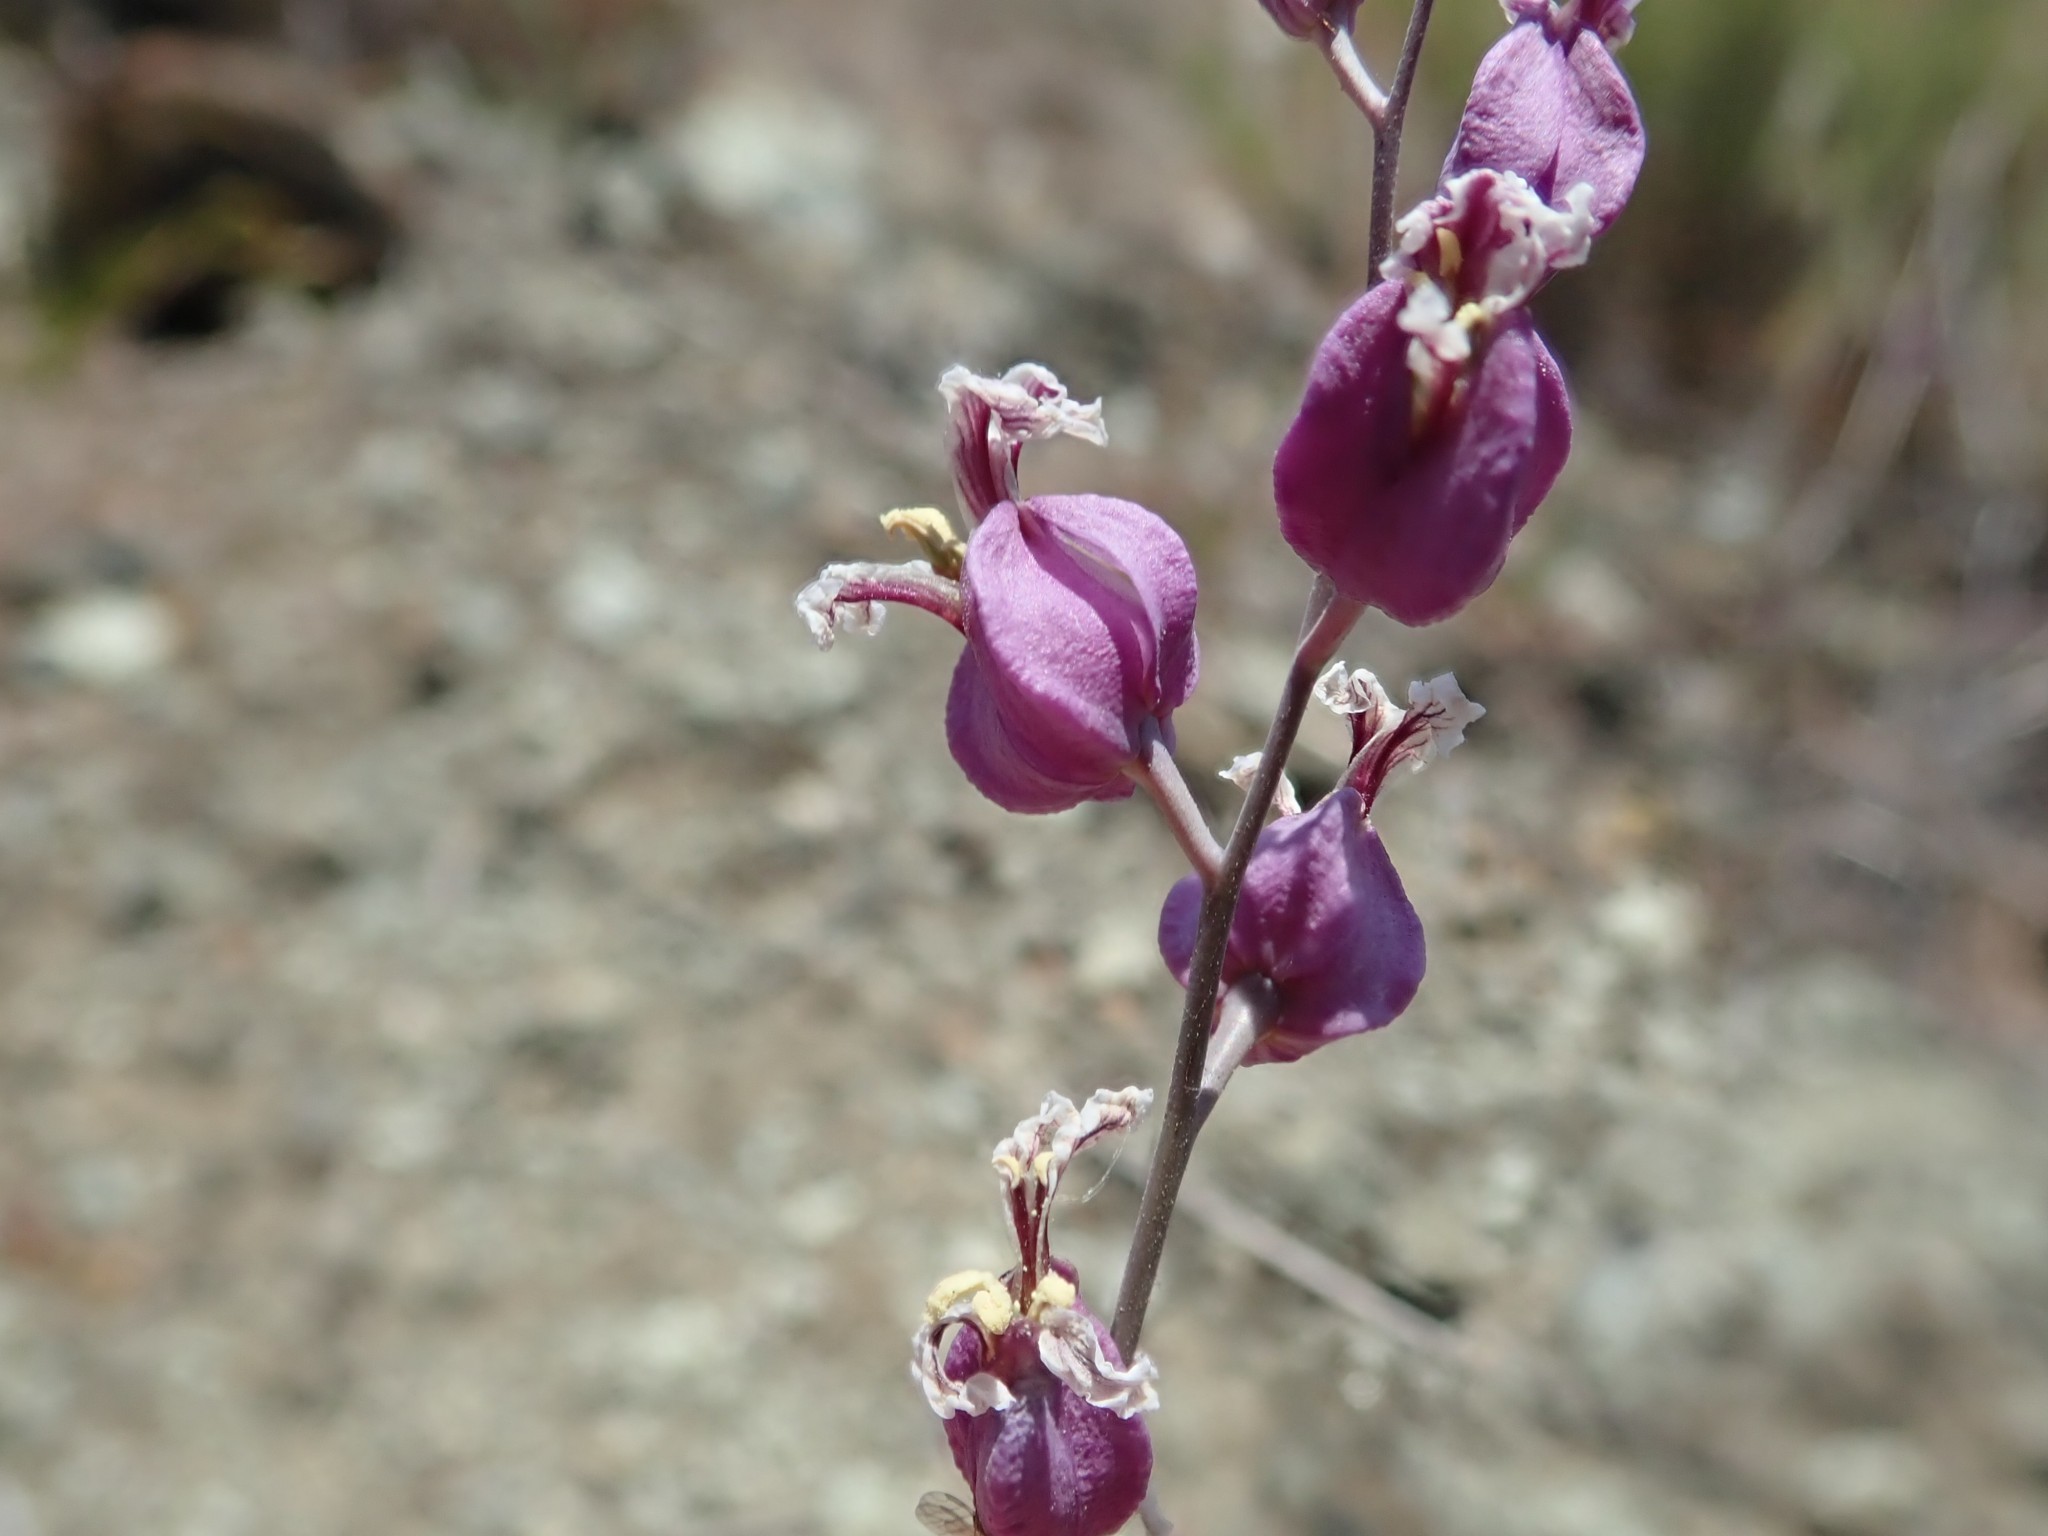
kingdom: Plantae
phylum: Tracheophyta
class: Magnoliopsida
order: Brassicales
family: Brassicaceae
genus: Streptanthus
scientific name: Streptanthus glandulosus
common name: Jewel-flower
